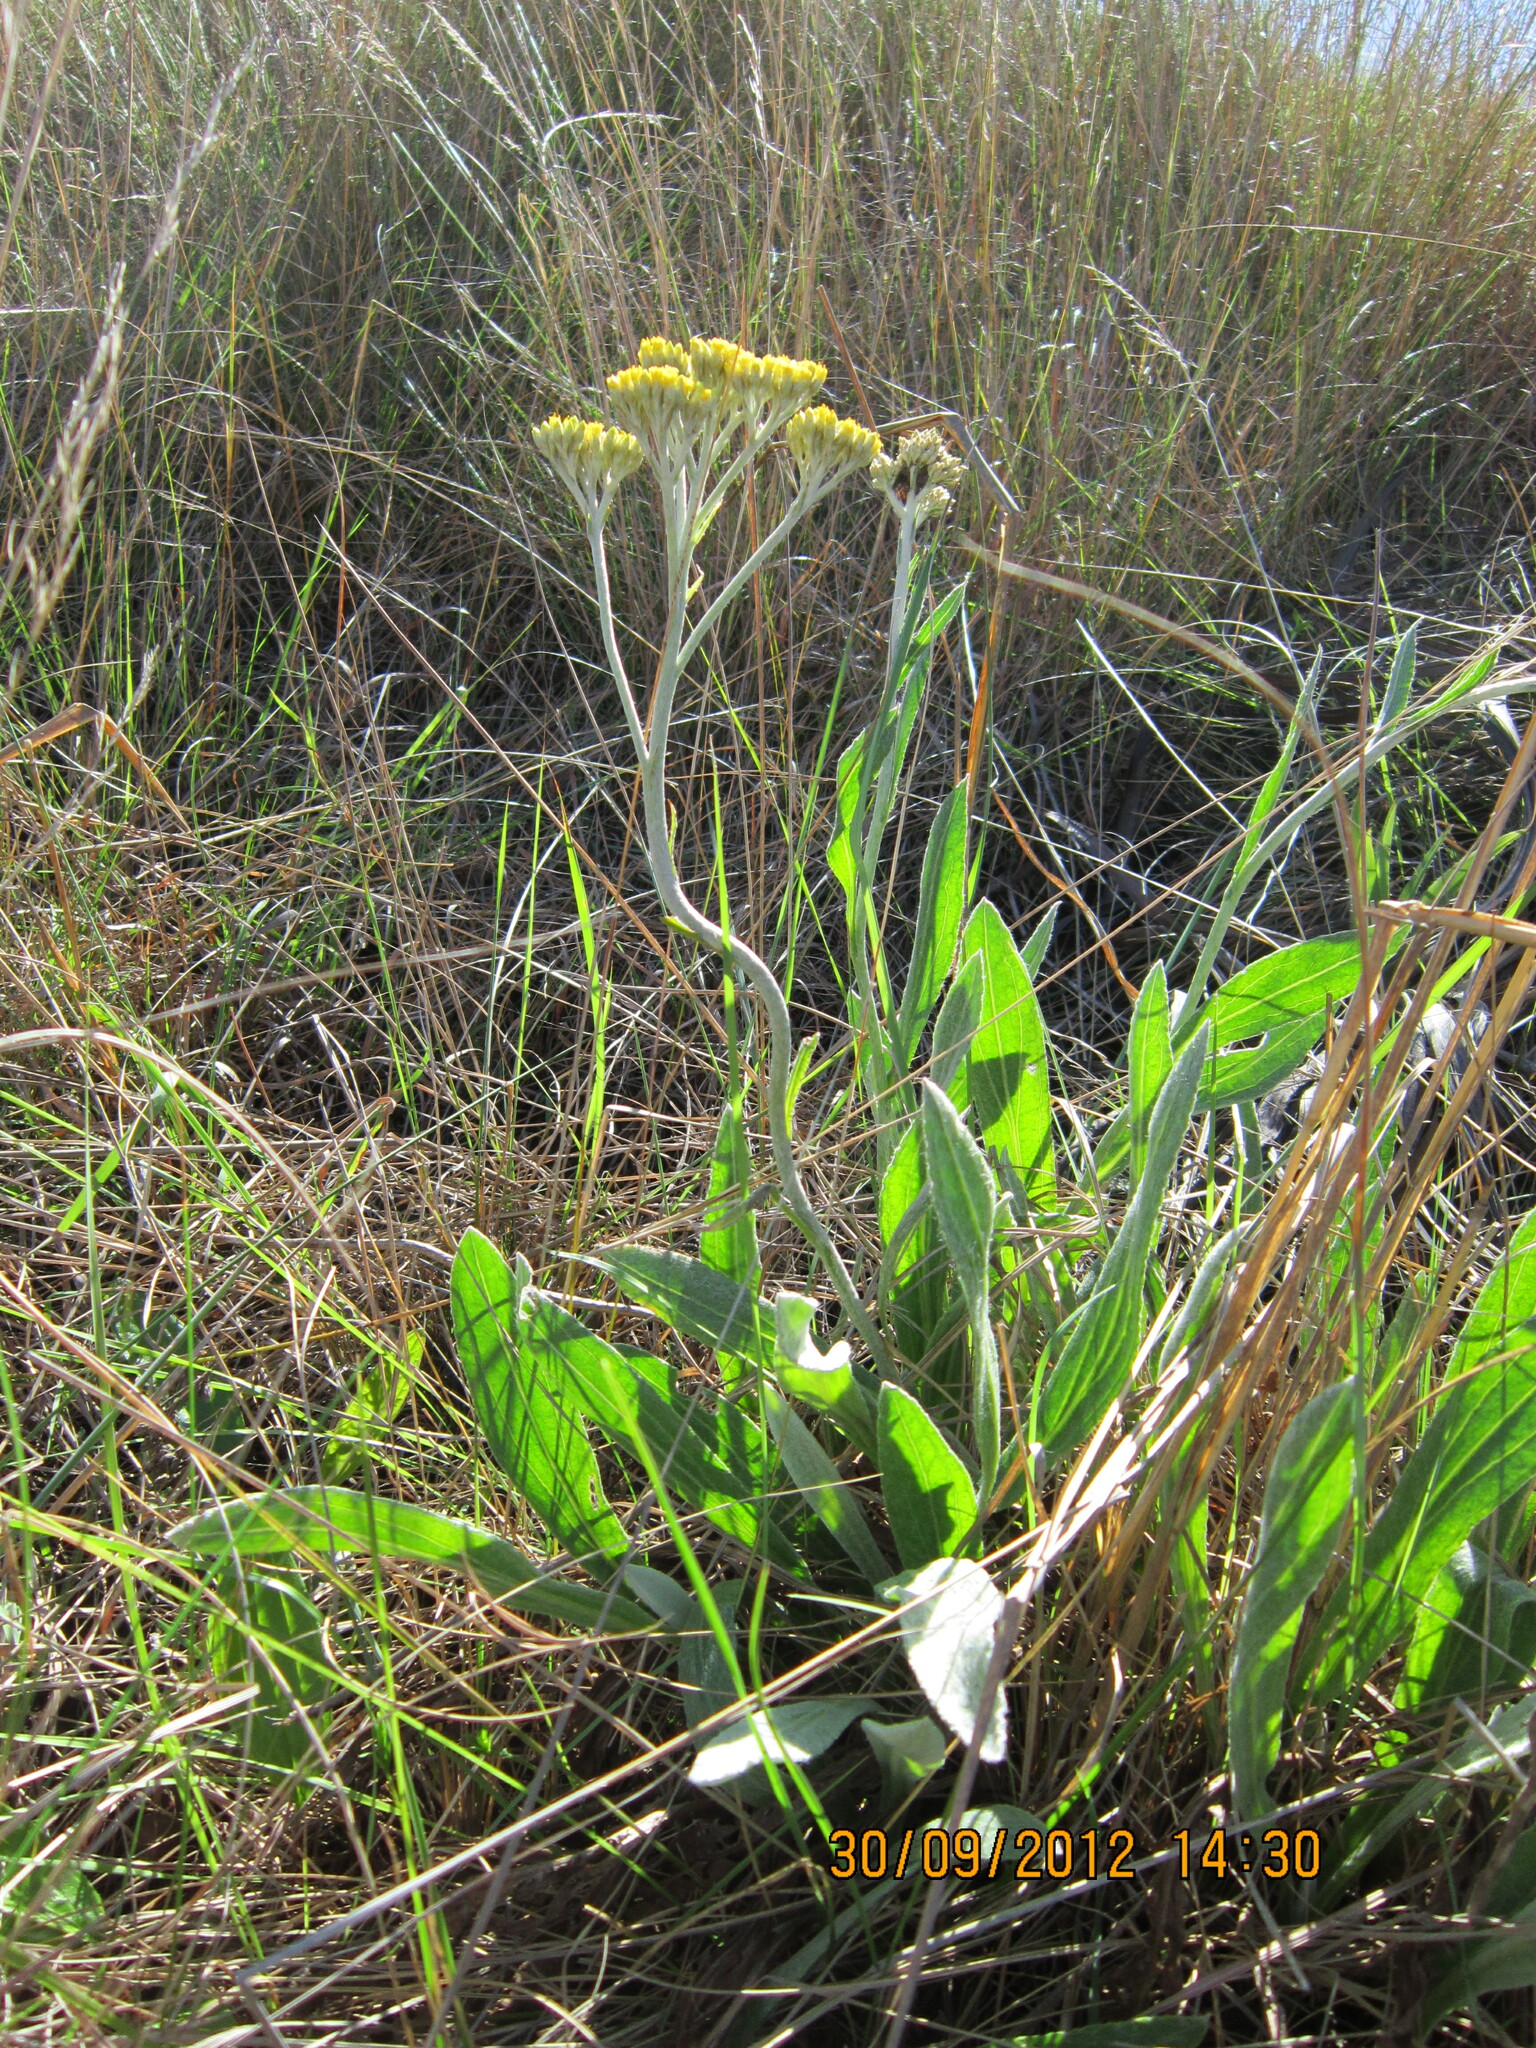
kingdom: Plantae
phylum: Tracheophyta
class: Magnoliopsida
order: Asterales
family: Asteraceae
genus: Helichrysum
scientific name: Helichrysum nudifolium
